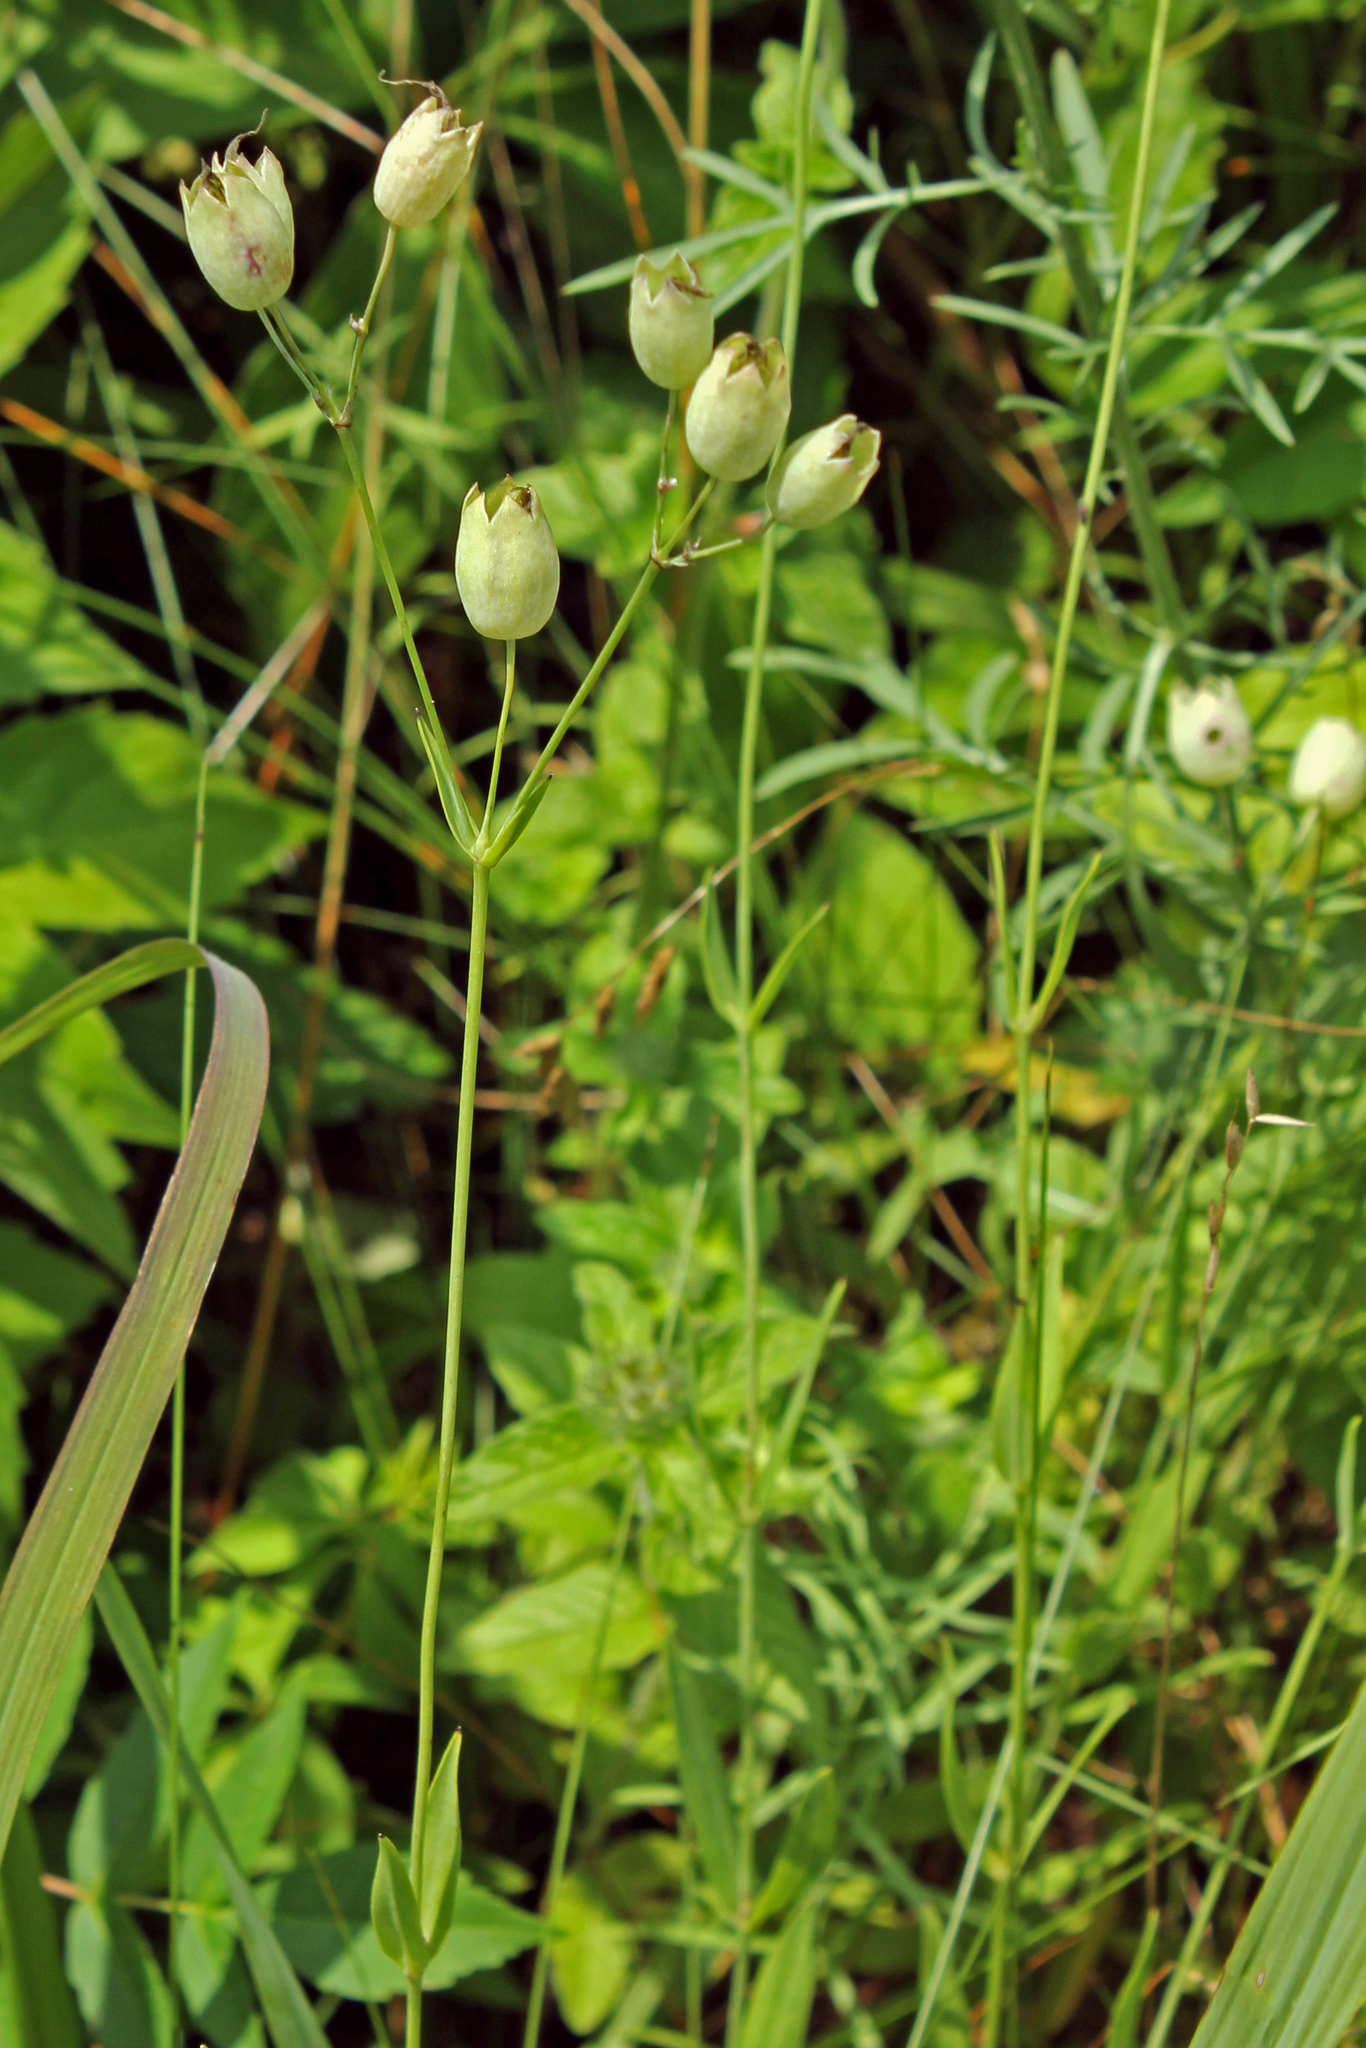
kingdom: Plantae
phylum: Tracheophyta
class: Magnoliopsida
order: Caryophyllales
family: Caryophyllaceae
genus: Silene
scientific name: Silene vulgaris
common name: Bladder campion
